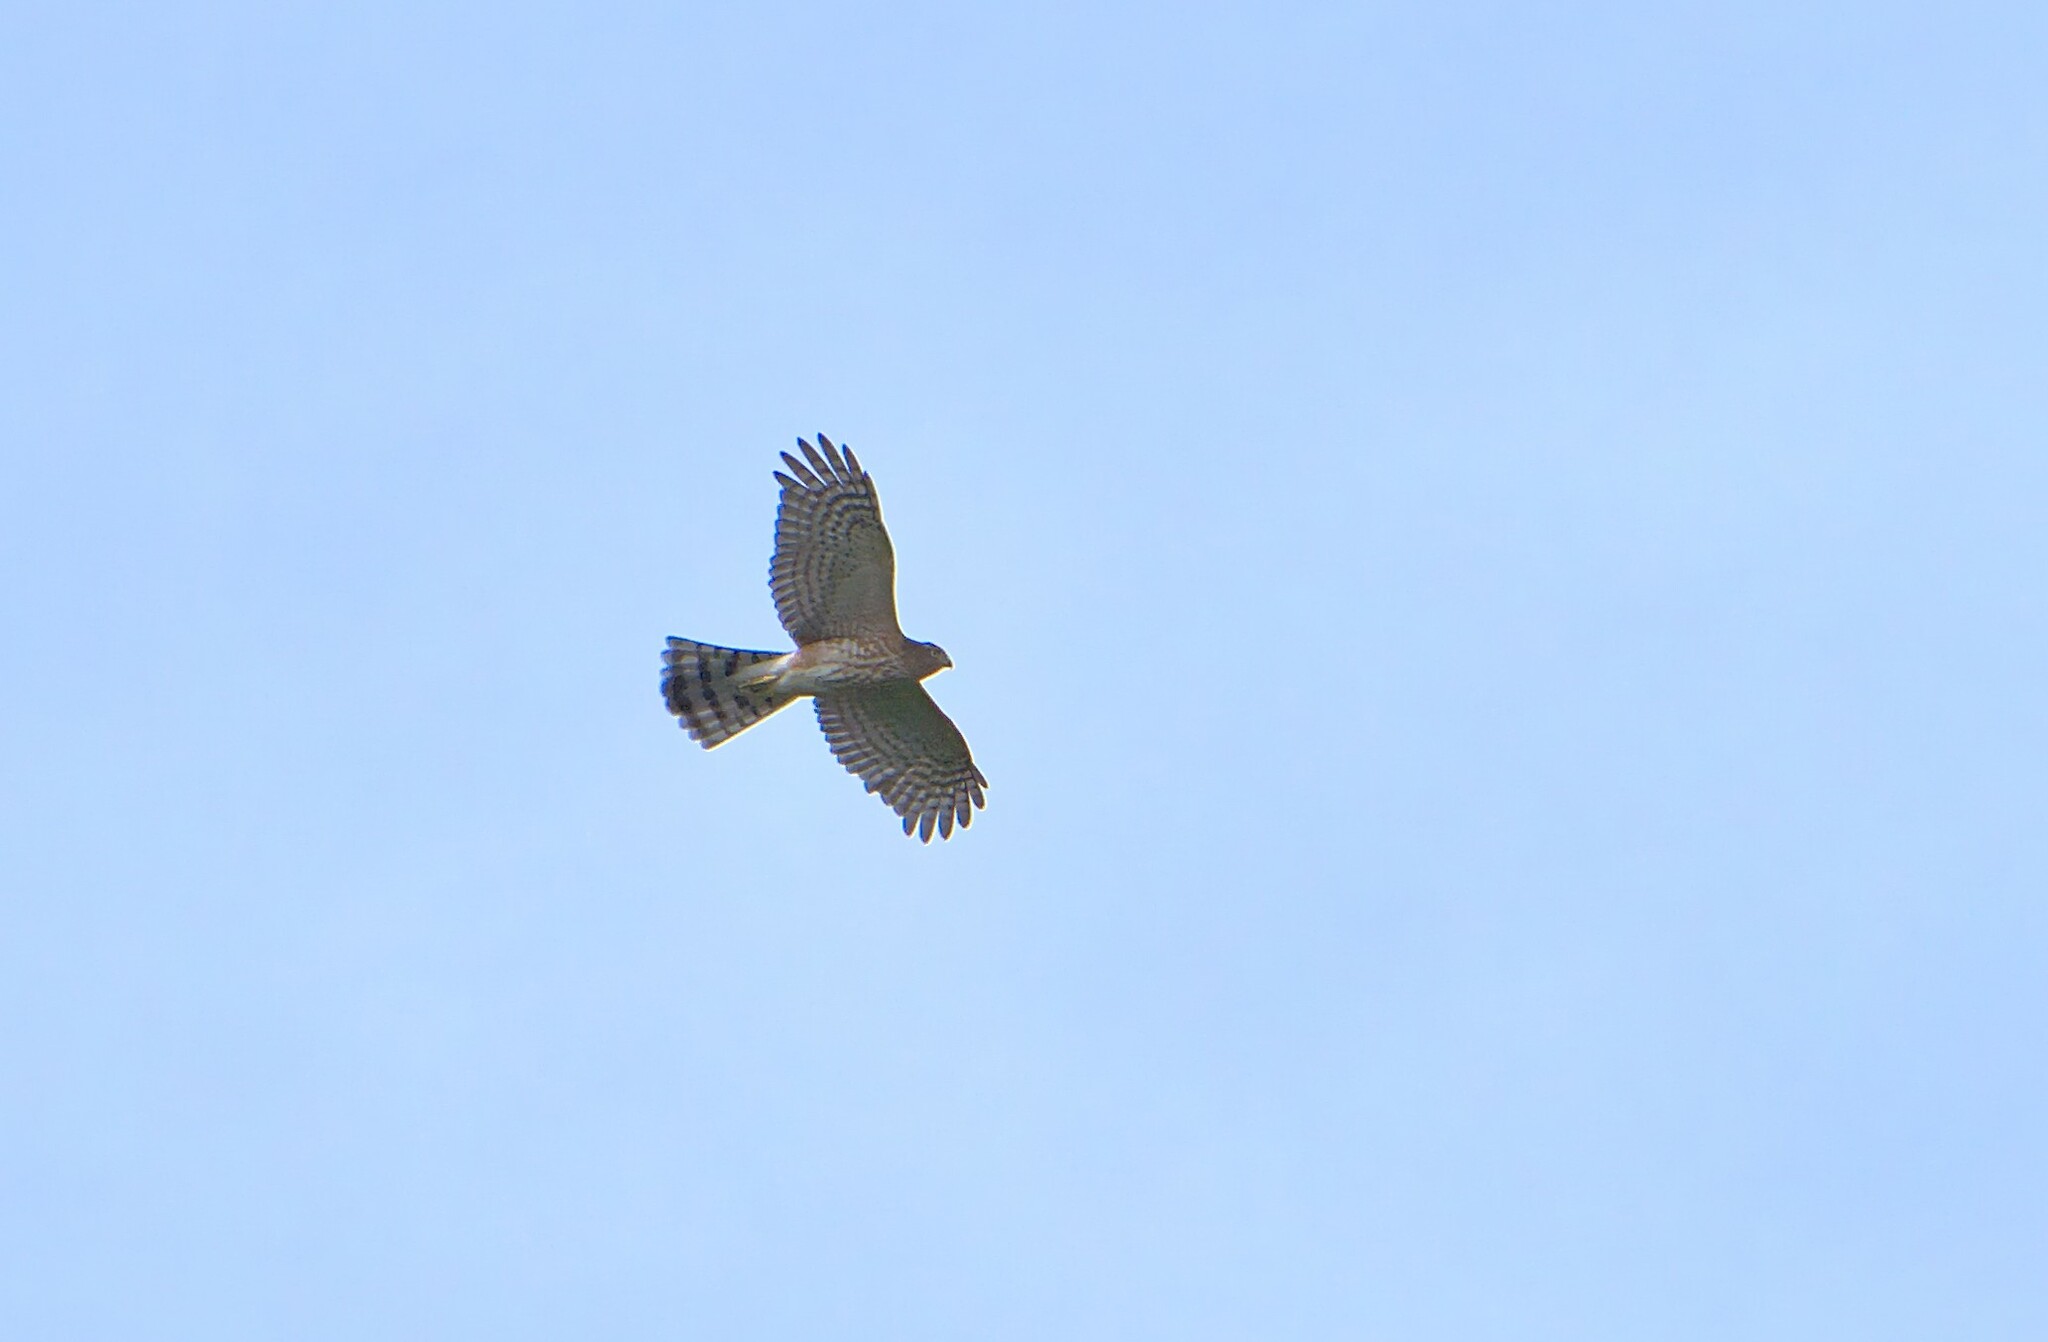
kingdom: Animalia
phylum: Chordata
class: Aves
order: Accipitriformes
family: Accipitridae
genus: Accipiter
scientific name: Accipiter striatus
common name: Sharp-shinned hawk
